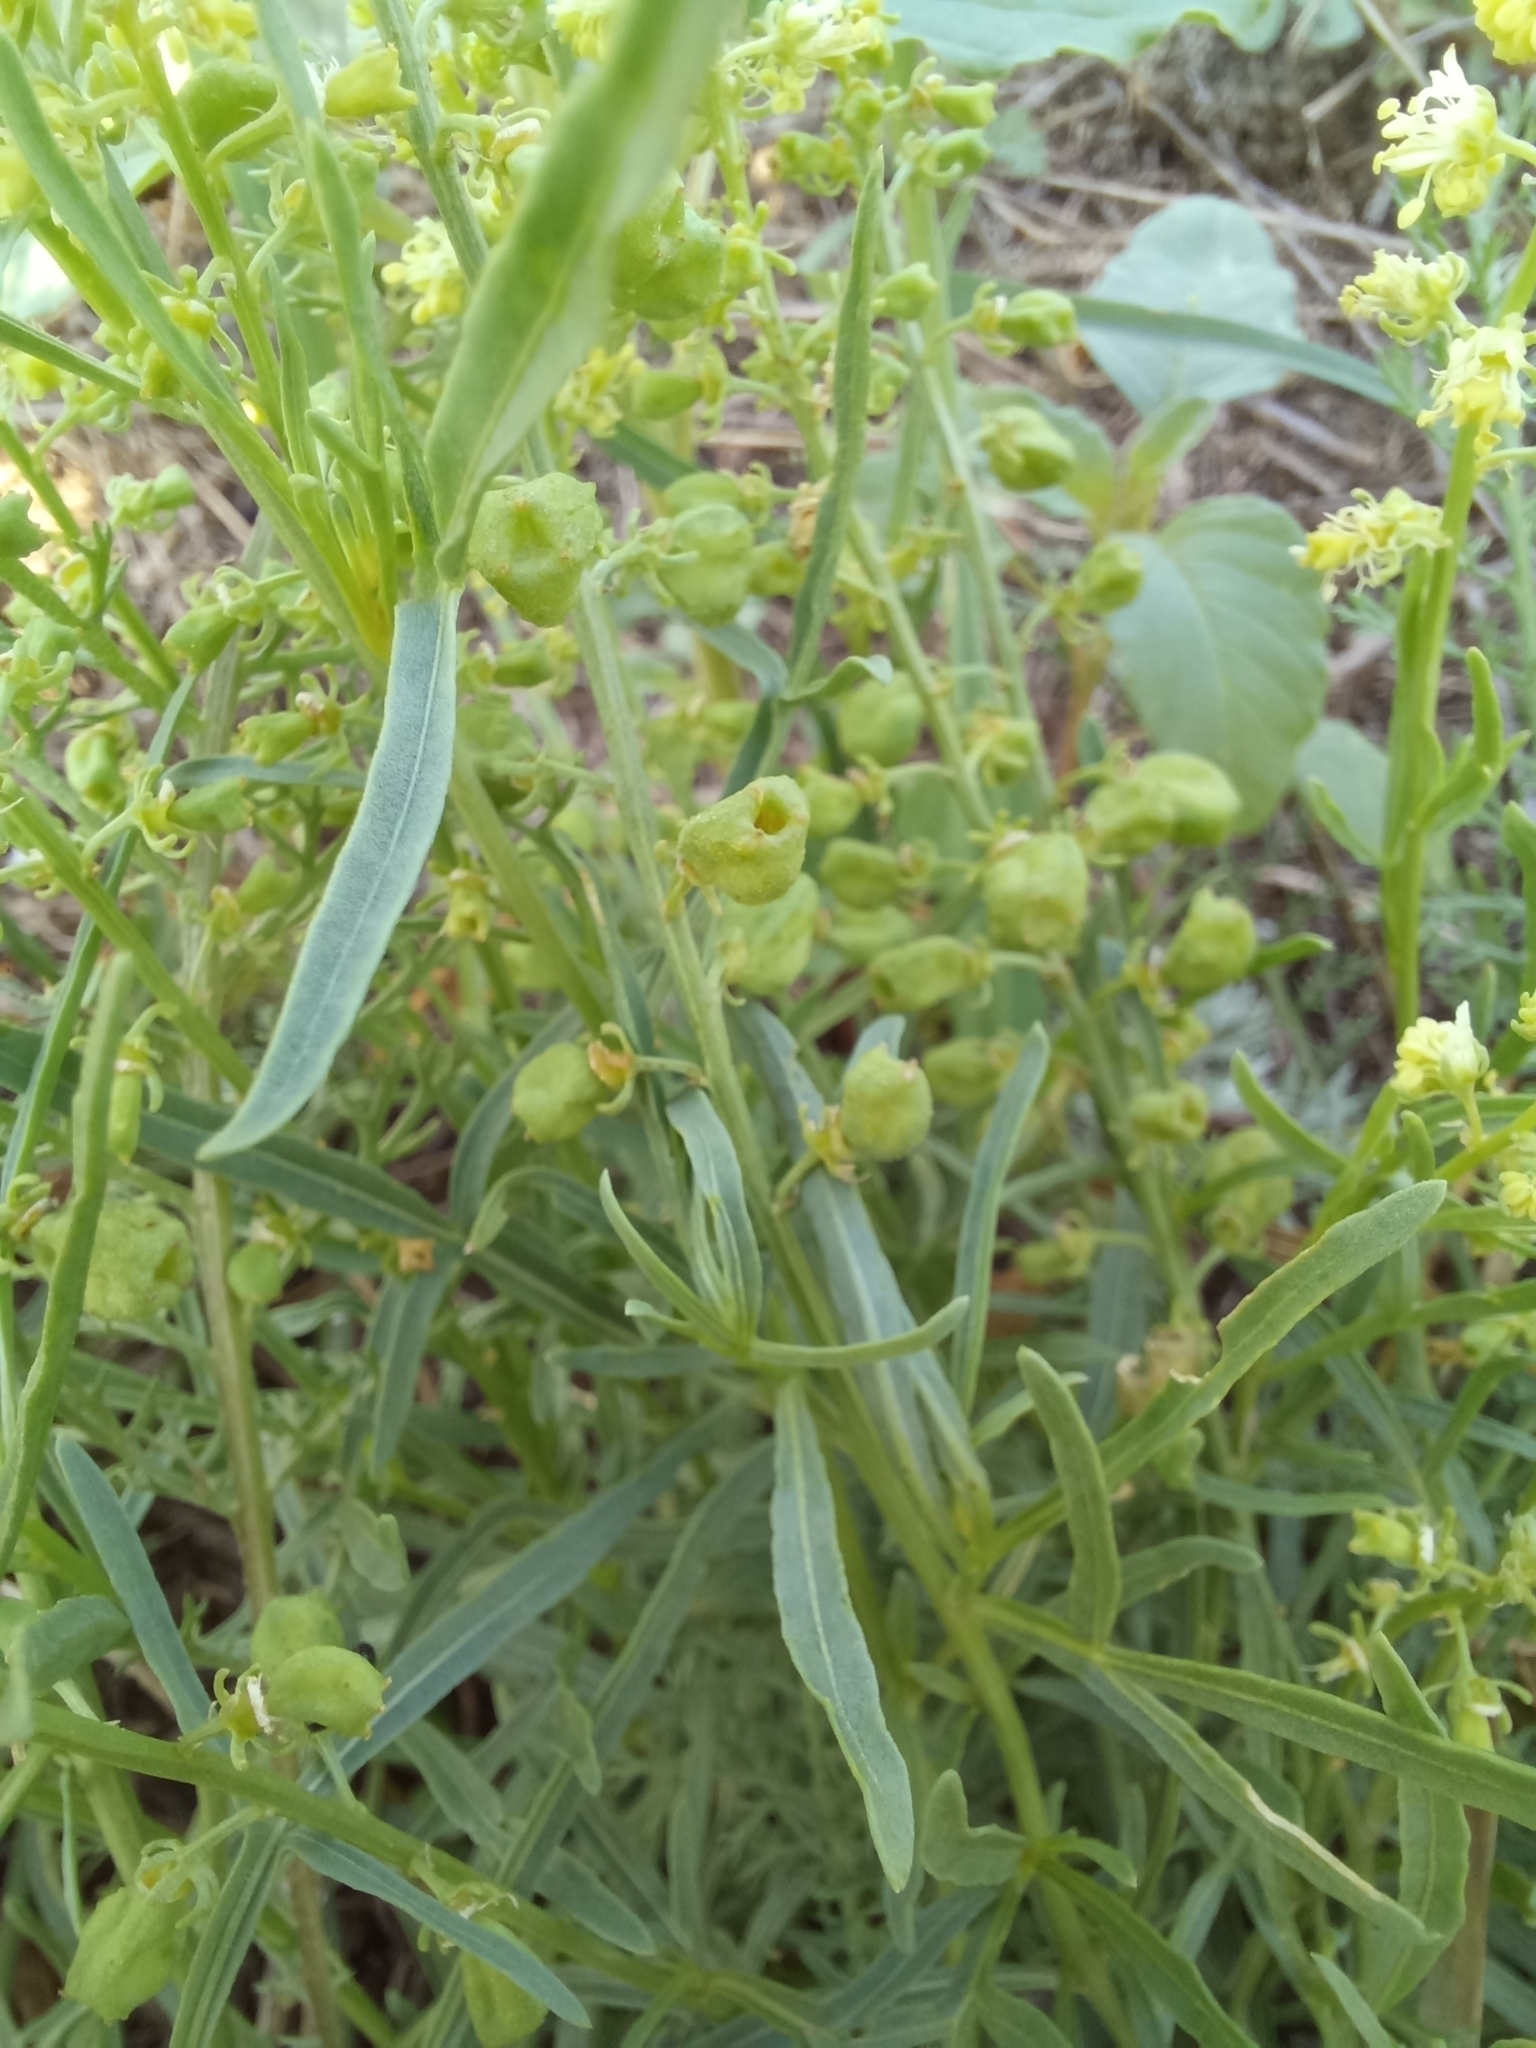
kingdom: Plantae
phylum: Tracheophyta
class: Magnoliopsida
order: Brassicales
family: Resedaceae
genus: Reseda
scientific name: Reseda lutea
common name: Wild mignonette
